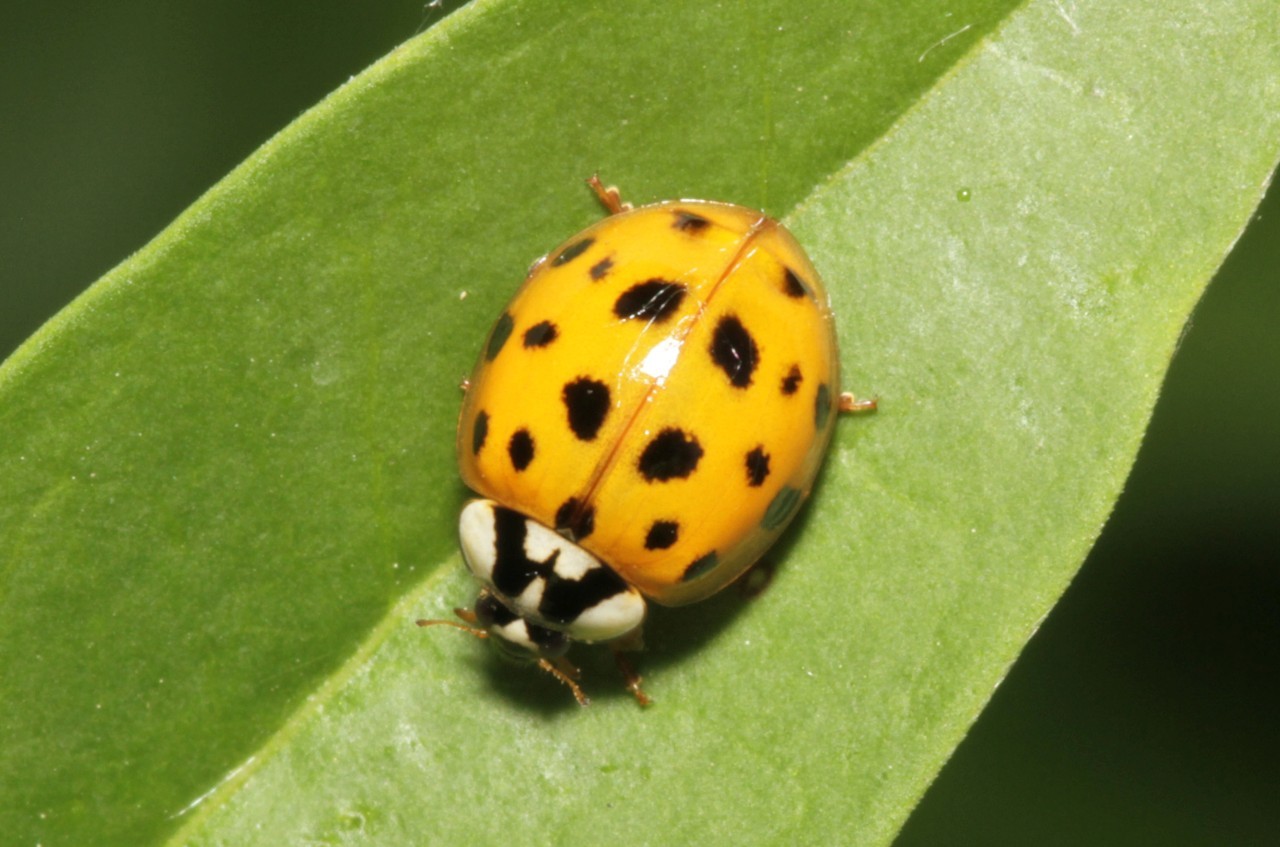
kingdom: Animalia
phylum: Arthropoda
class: Insecta
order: Coleoptera
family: Coccinellidae
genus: Harmonia
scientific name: Harmonia axyridis
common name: Harlequin ladybird
